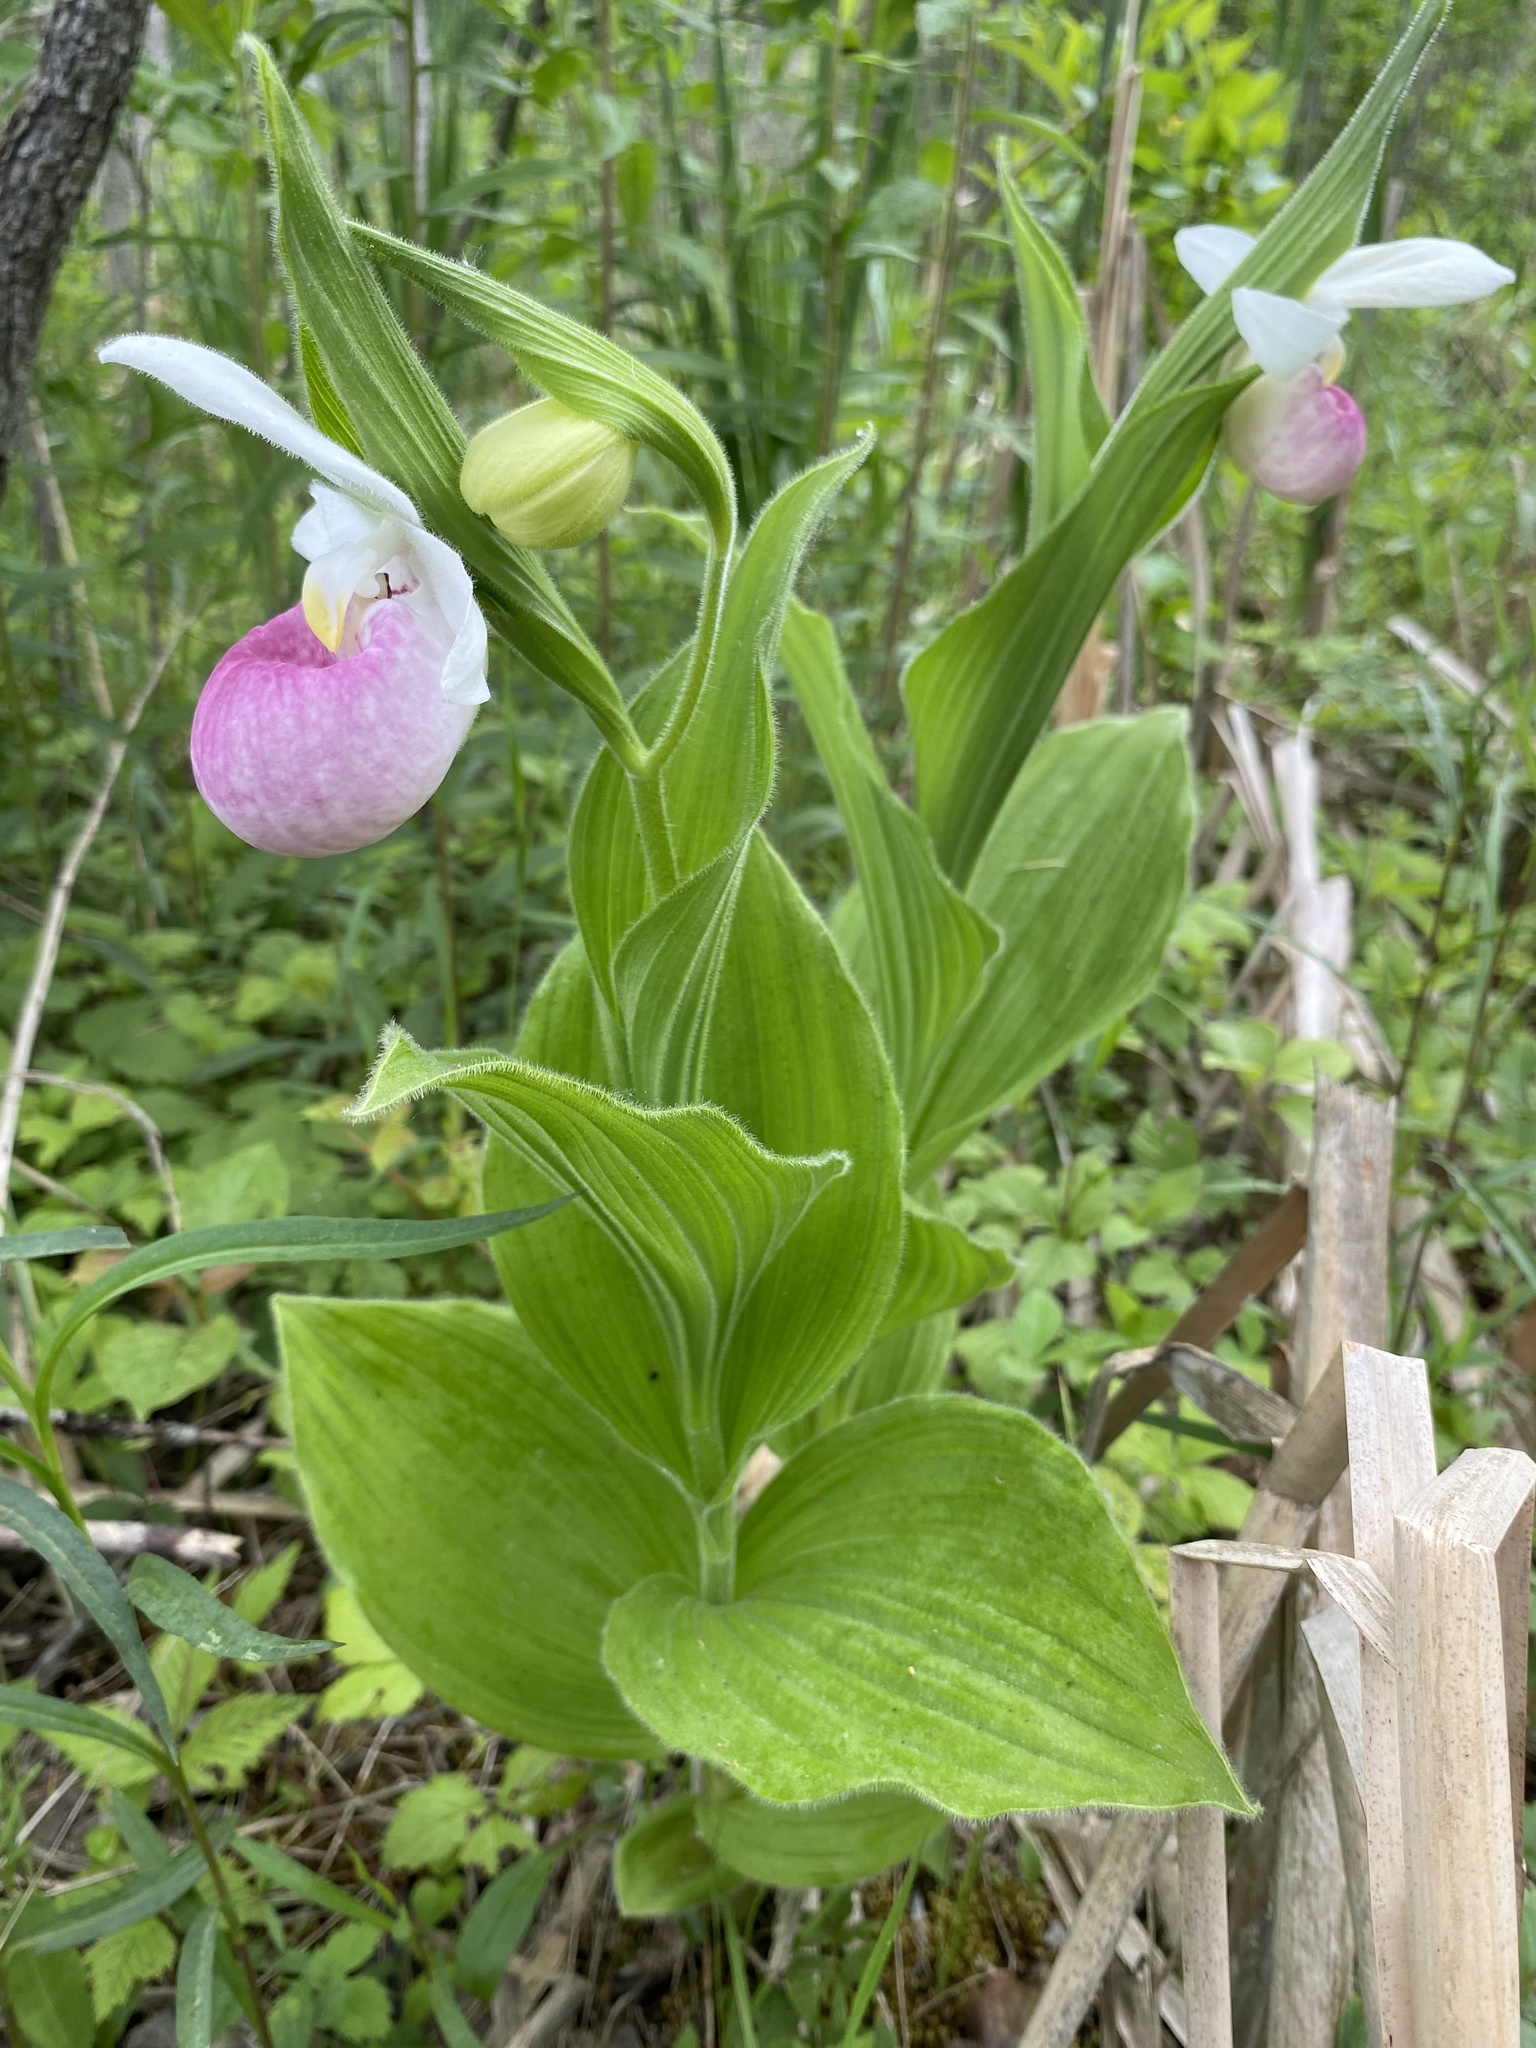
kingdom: Plantae
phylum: Tracheophyta
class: Liliopsida
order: Asparagales
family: Orchidaceae
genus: Cypripedium
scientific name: Cypripedium reginae
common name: Queen lady's-slipper
